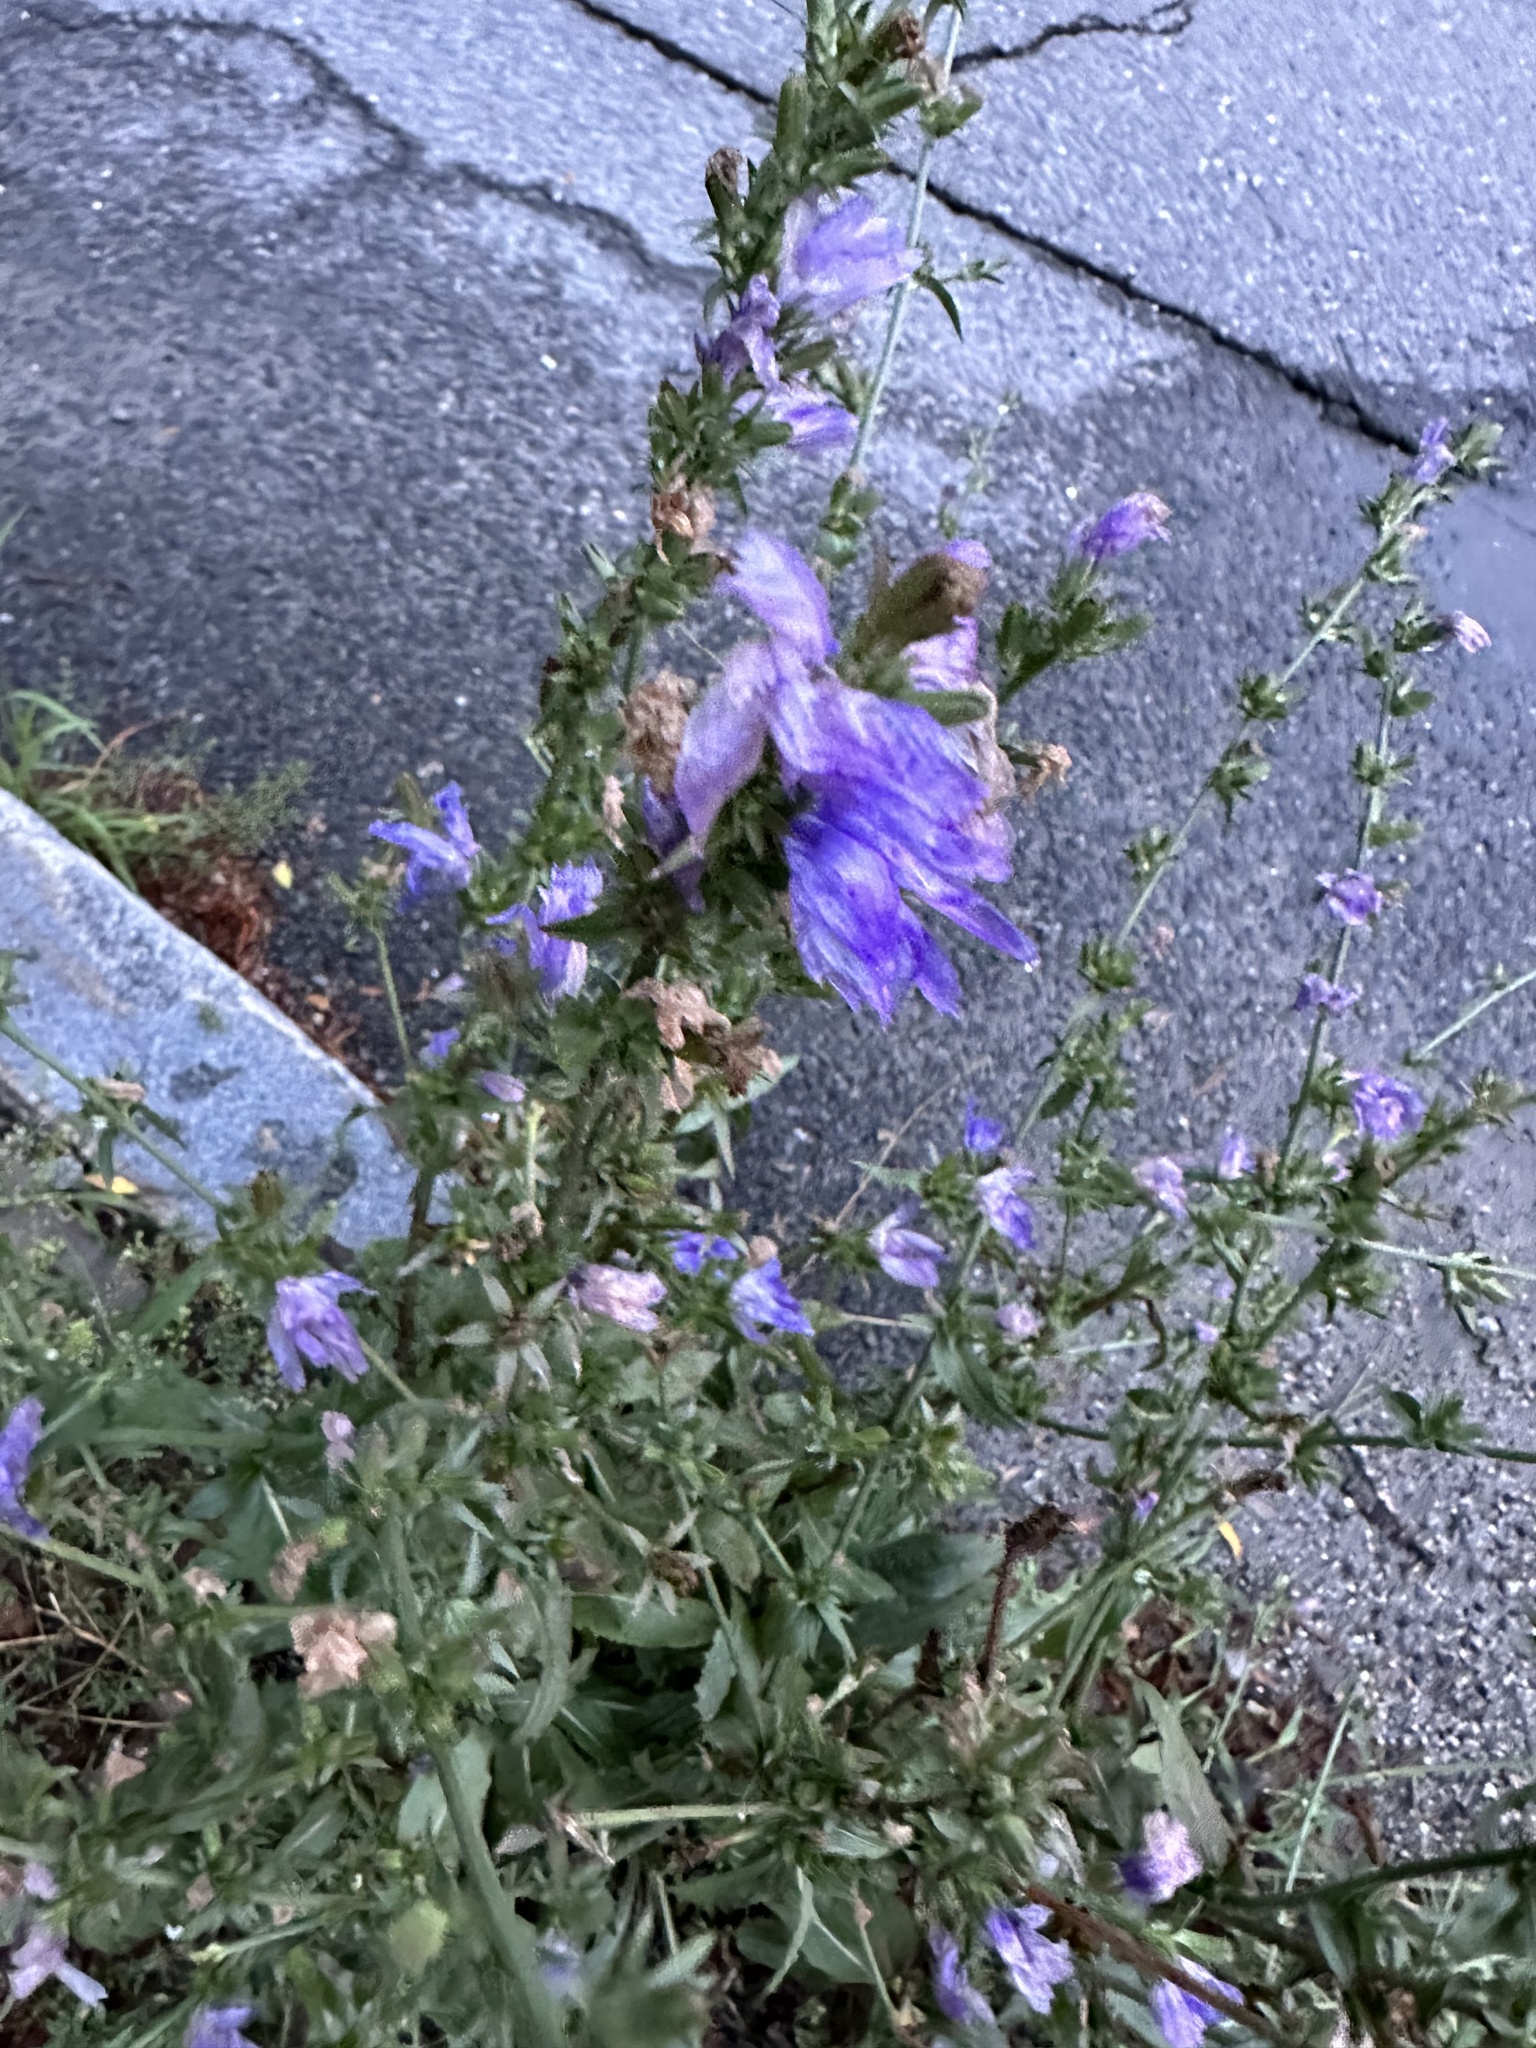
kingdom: Plantae
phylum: Tracheophyta
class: Magnoliopsida
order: Asterales
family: Asteraceae
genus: Cichorium
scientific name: Cichorium intybus
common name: Chicory
